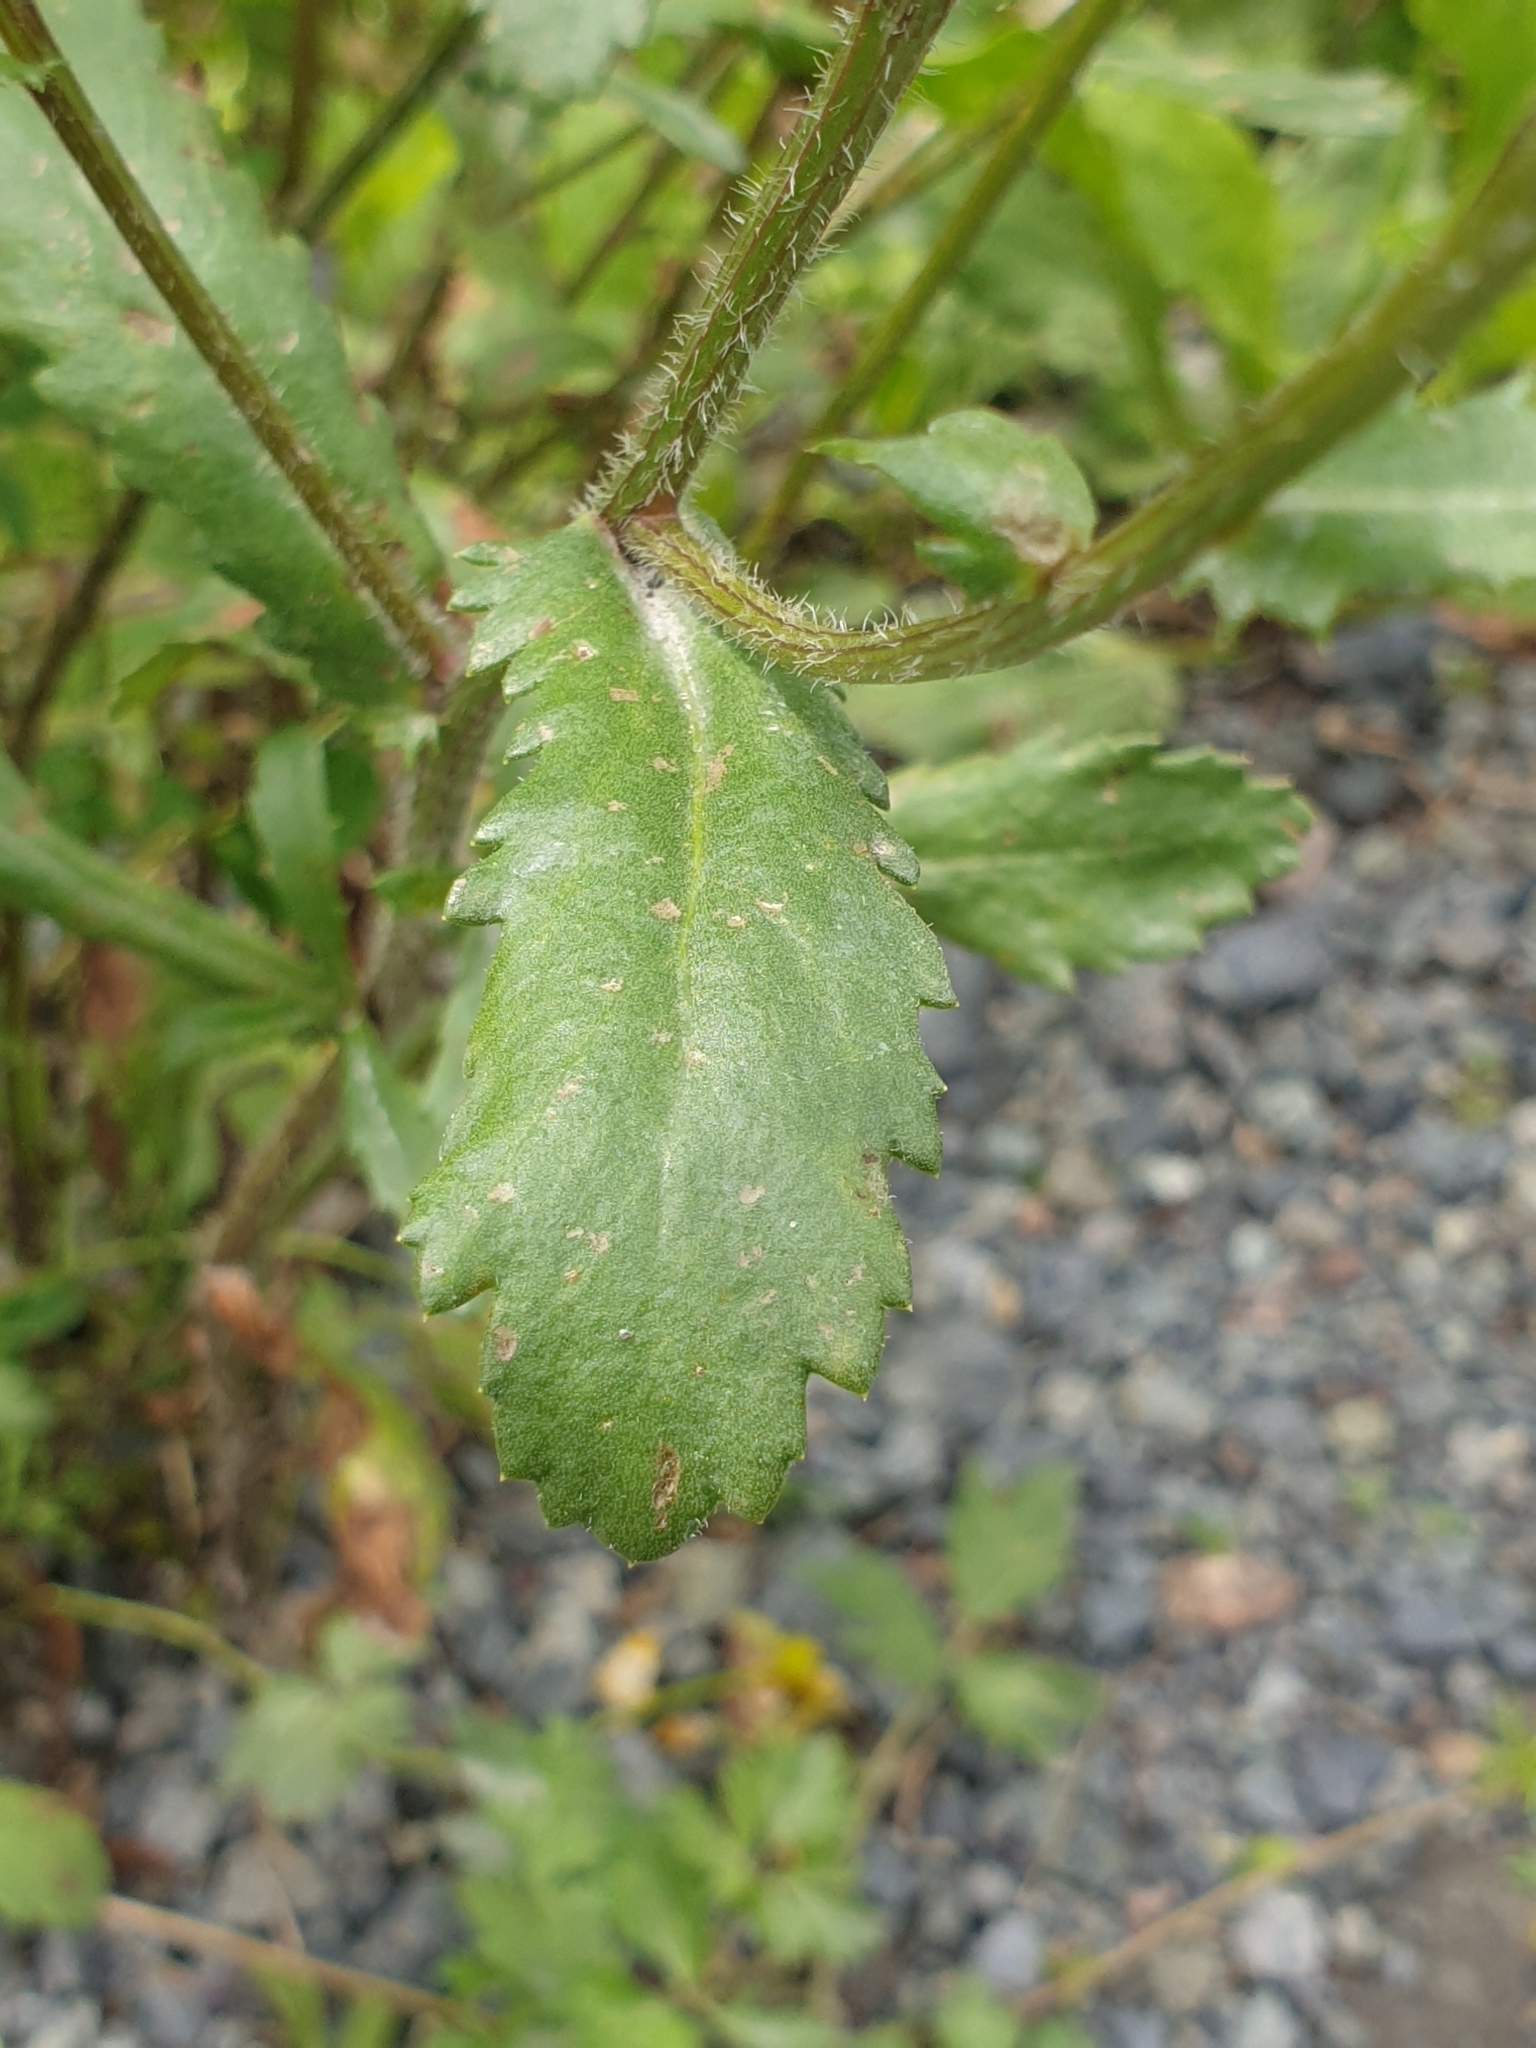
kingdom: Plantae
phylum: Tracheophyta
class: Magnoliopsida
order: Asterales
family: Asteraceae
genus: Leucanthemum
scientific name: Leucanthemum vulgare
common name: Oxeye daisy
